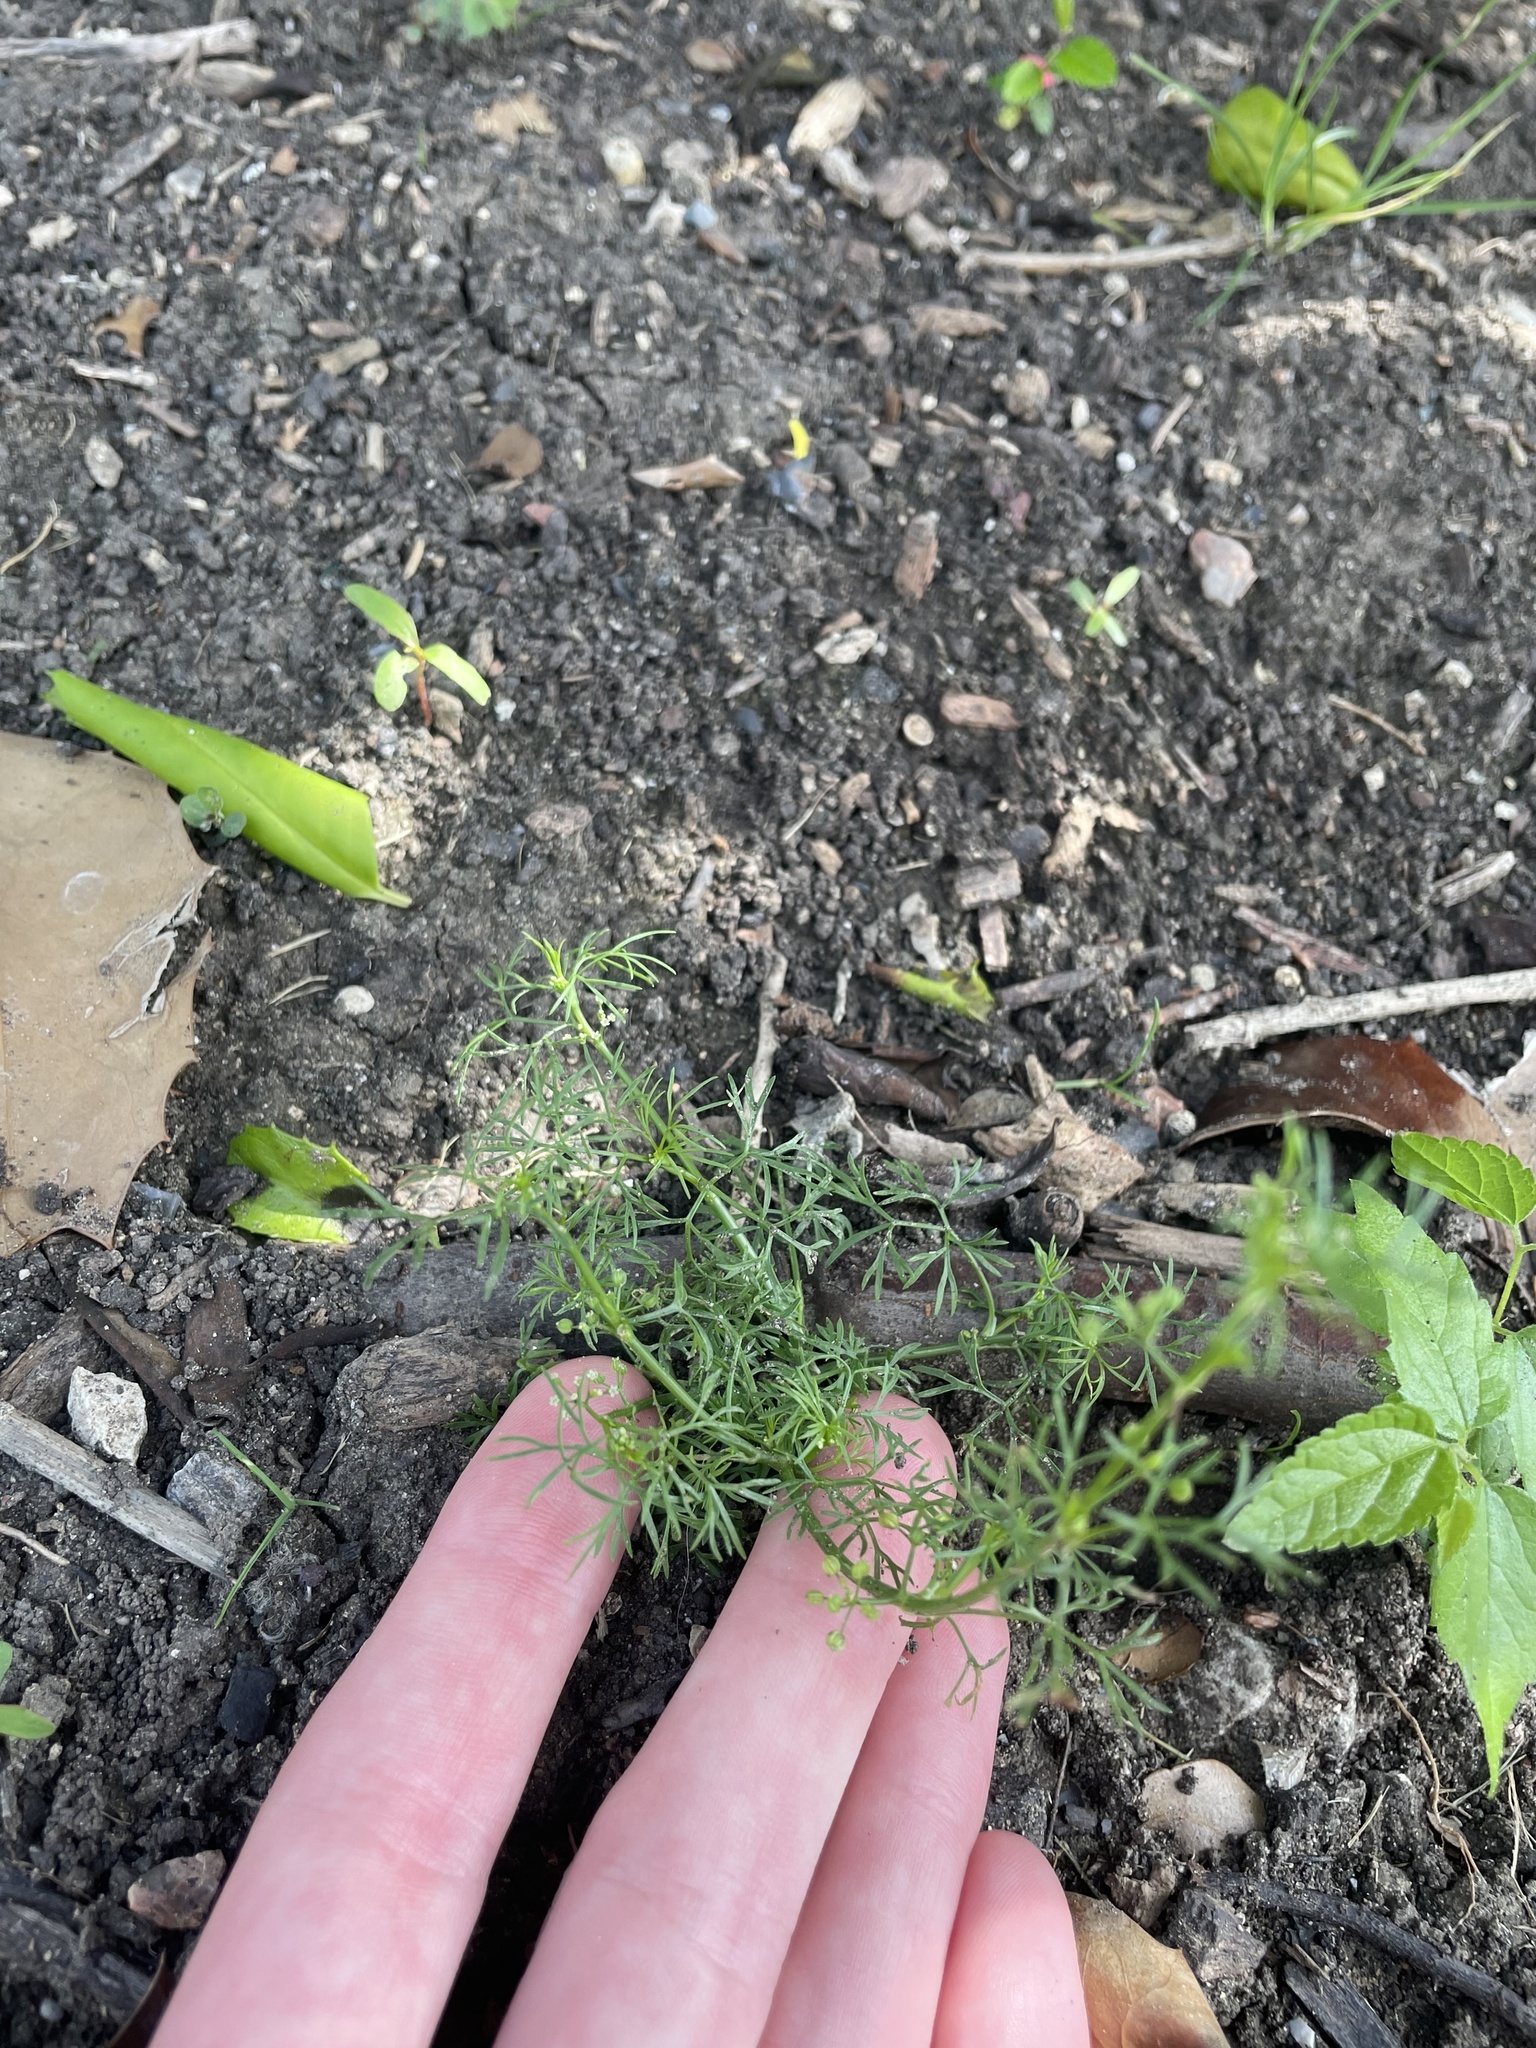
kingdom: Plantae
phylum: Tracheophyta
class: Magnoliopsida
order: Apiales
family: Apiaceae
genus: Ptilimnium
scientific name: Ptilimnium capillaceum
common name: Herbwilliam
